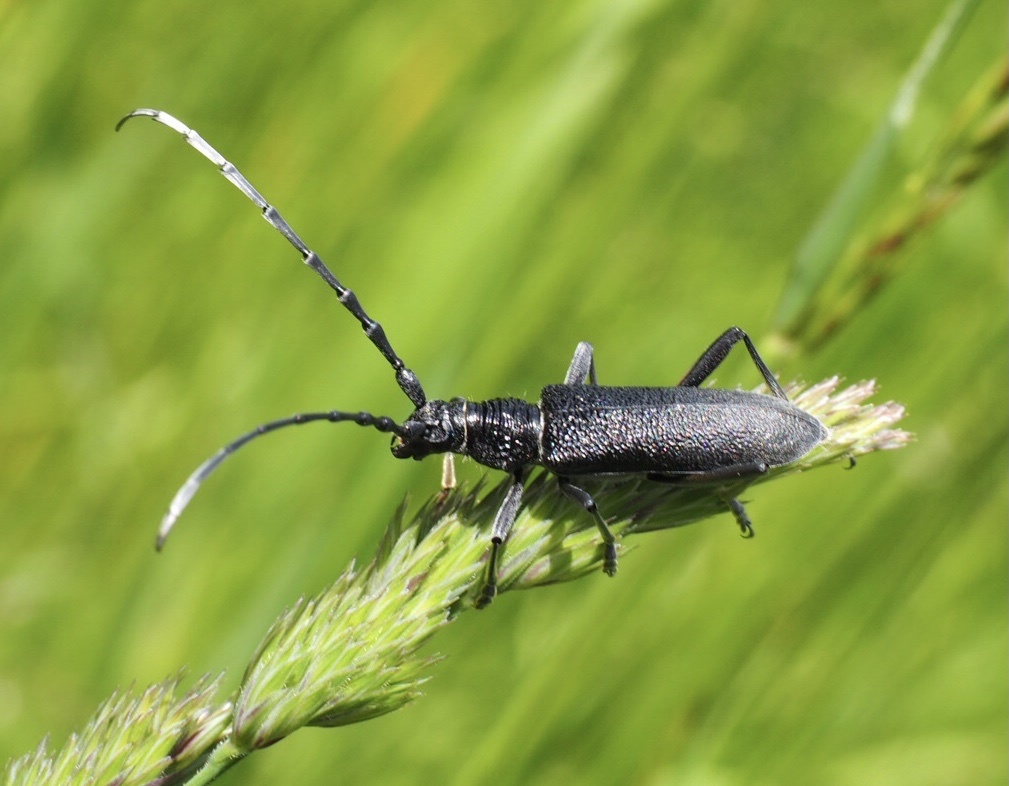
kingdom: Animalia
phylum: Arthropoda
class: Insecta
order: Coleoptera
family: Cerambycidae
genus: Cerambyx
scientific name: Cerambyx scopolii
